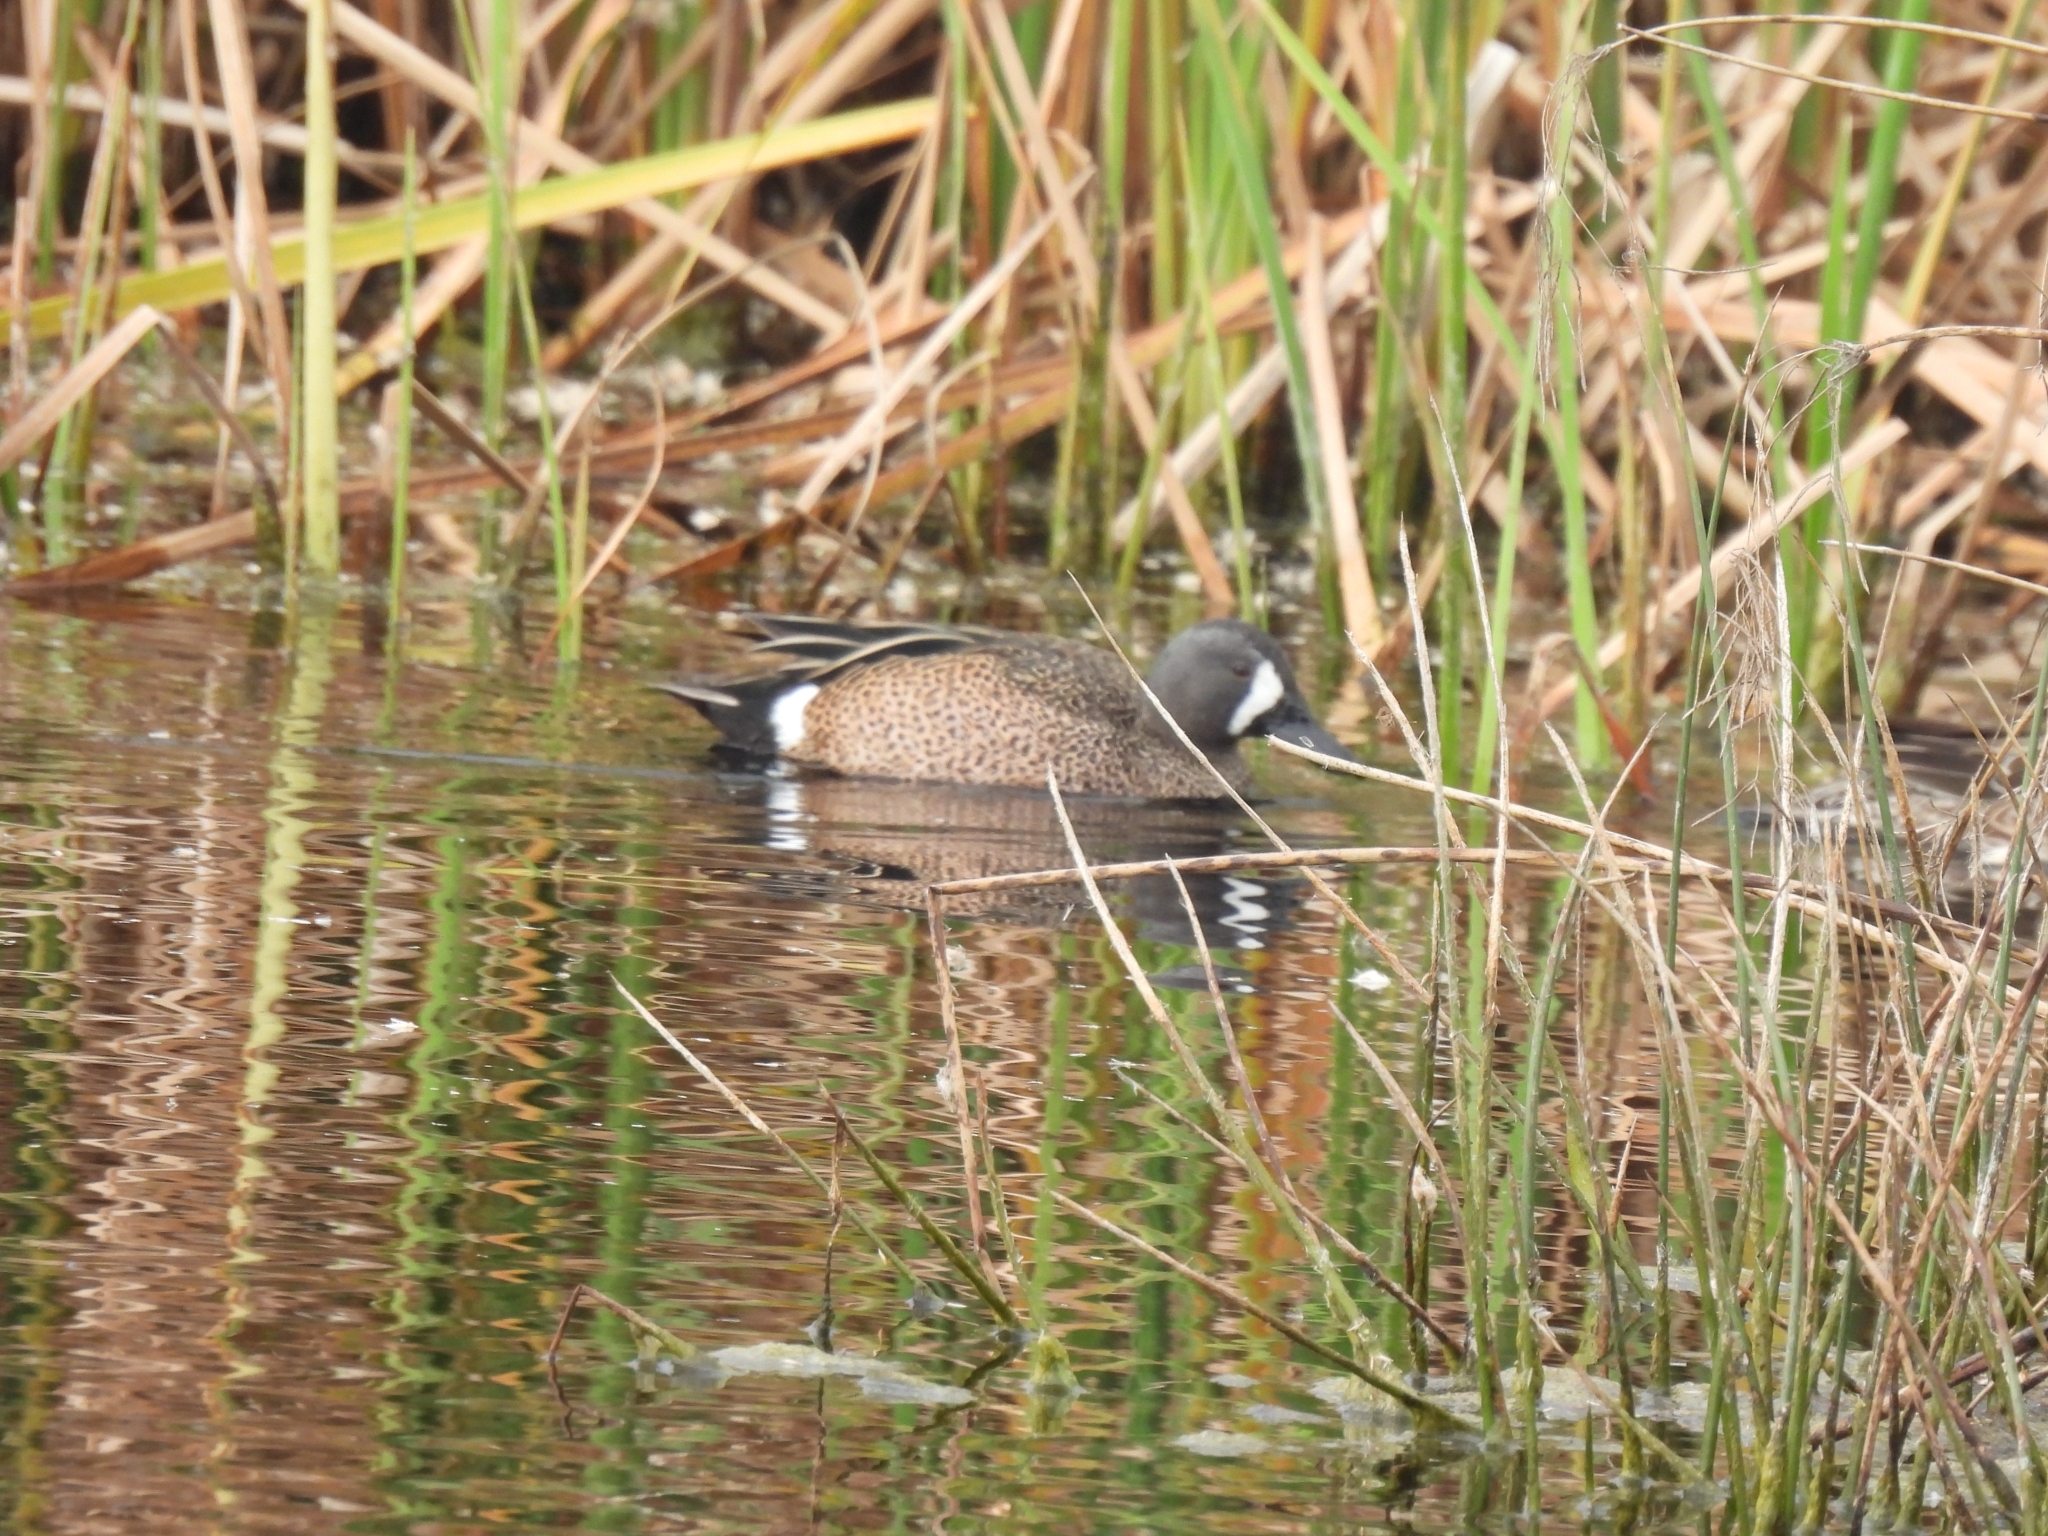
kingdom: Animalia
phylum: Chordata
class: Aves
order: Anseriformes
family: Anatidae
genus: Spatula
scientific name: Spatula discors
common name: Blue-winged teal
